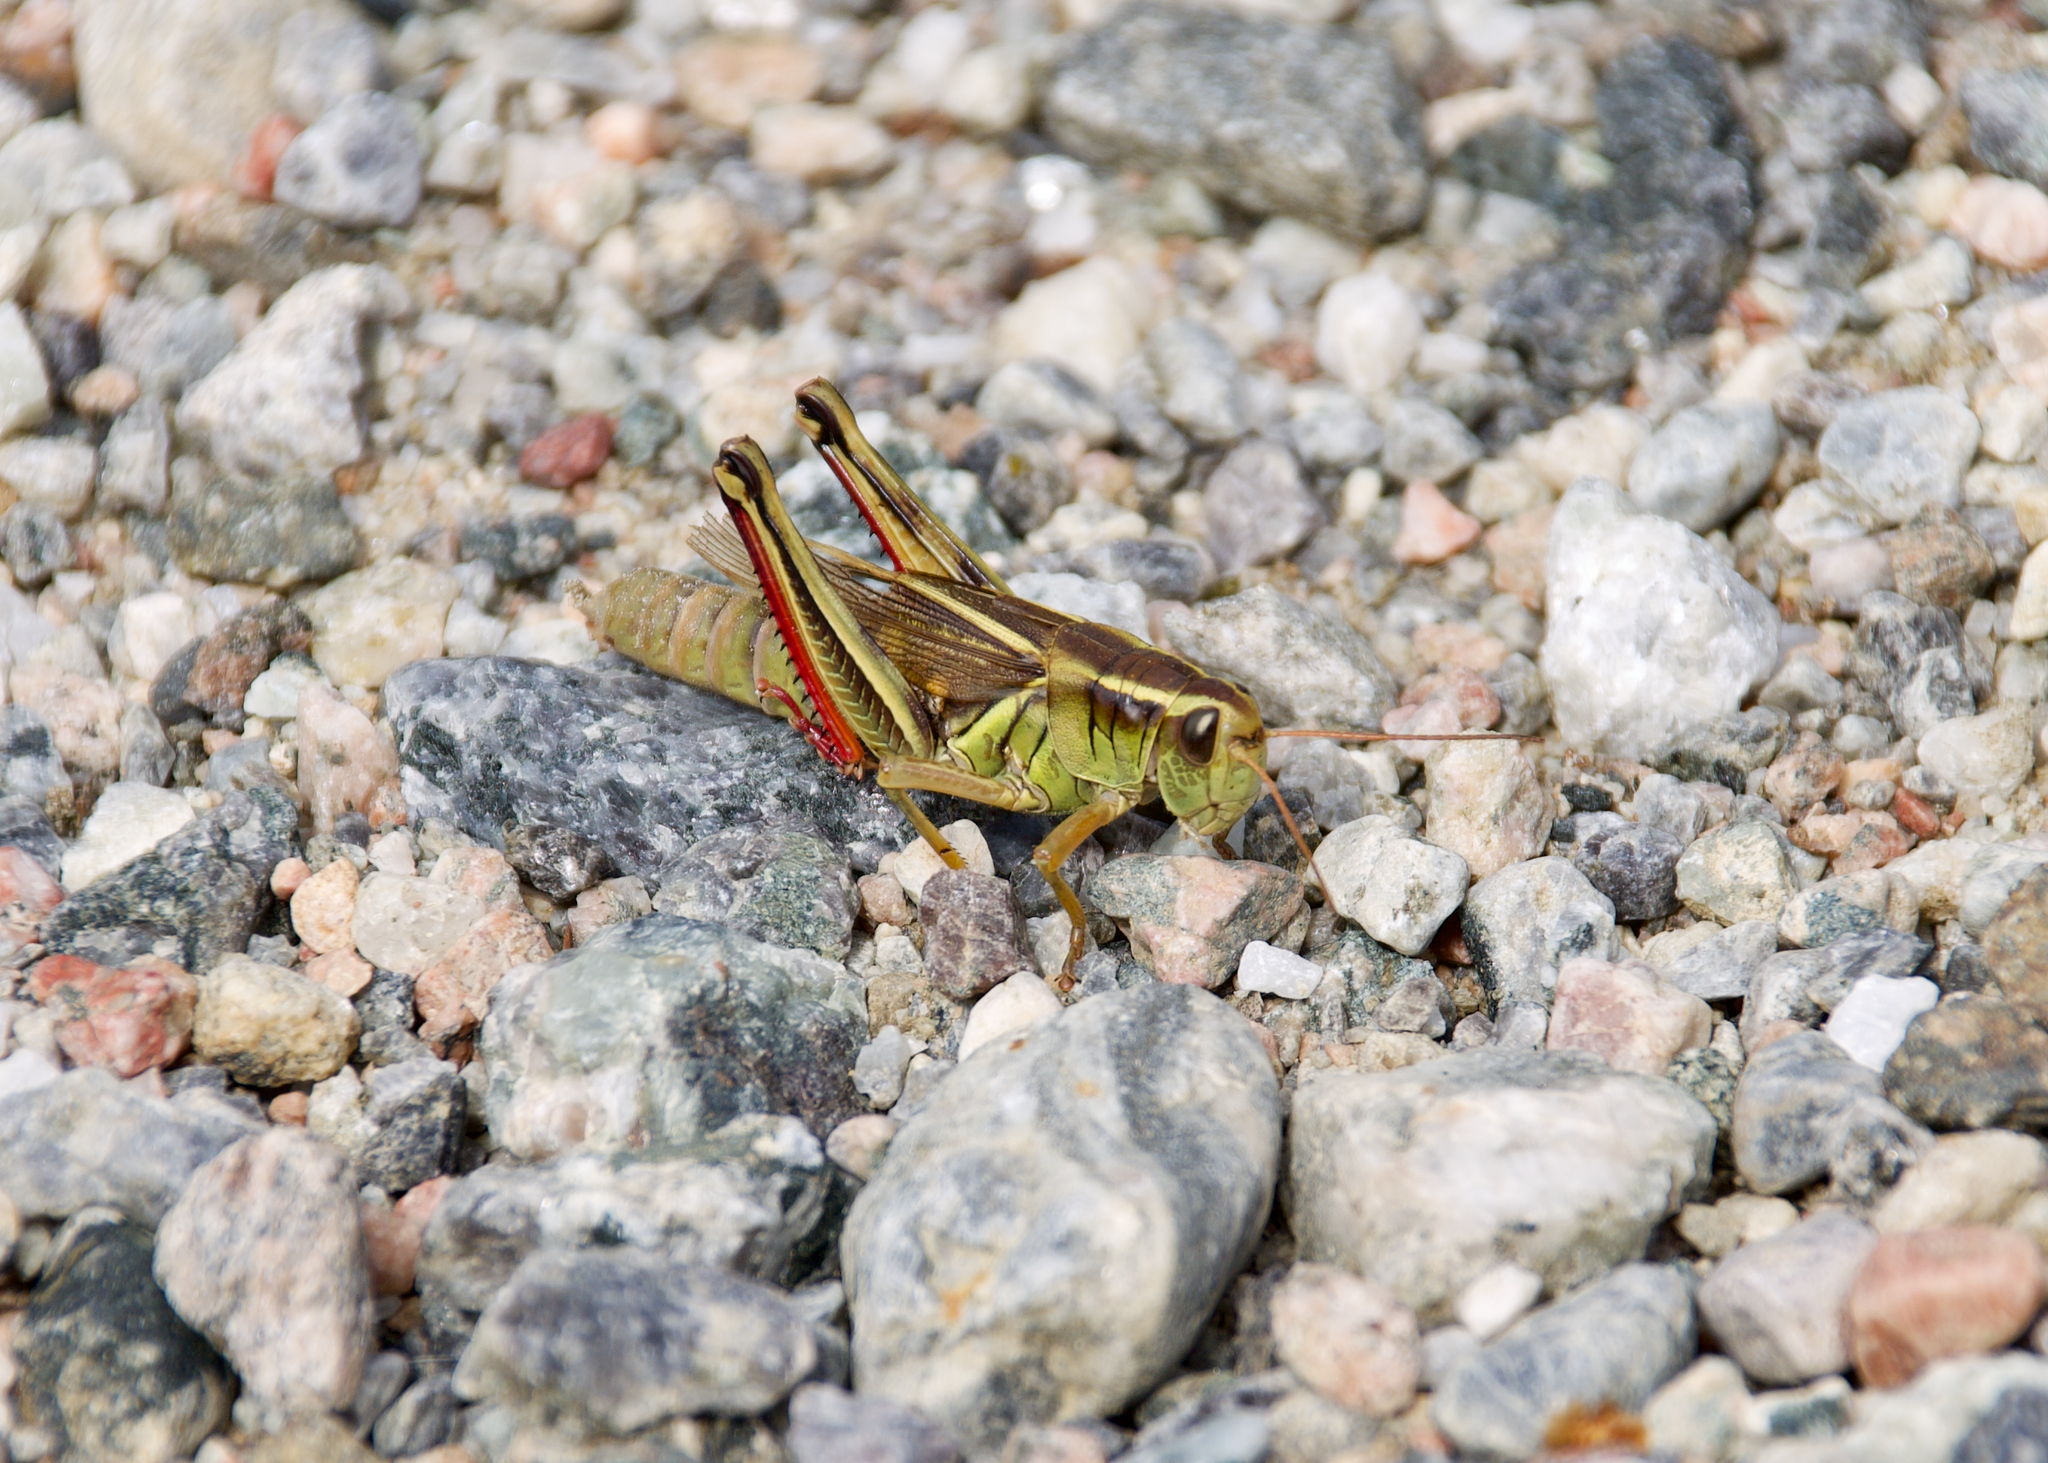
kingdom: Animalia
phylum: Arthropoda
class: Insecta
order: Orthoptera
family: Acrididae
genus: Melanoplus
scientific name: Melanoplus bivittatus
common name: Two-striped grasshopper
